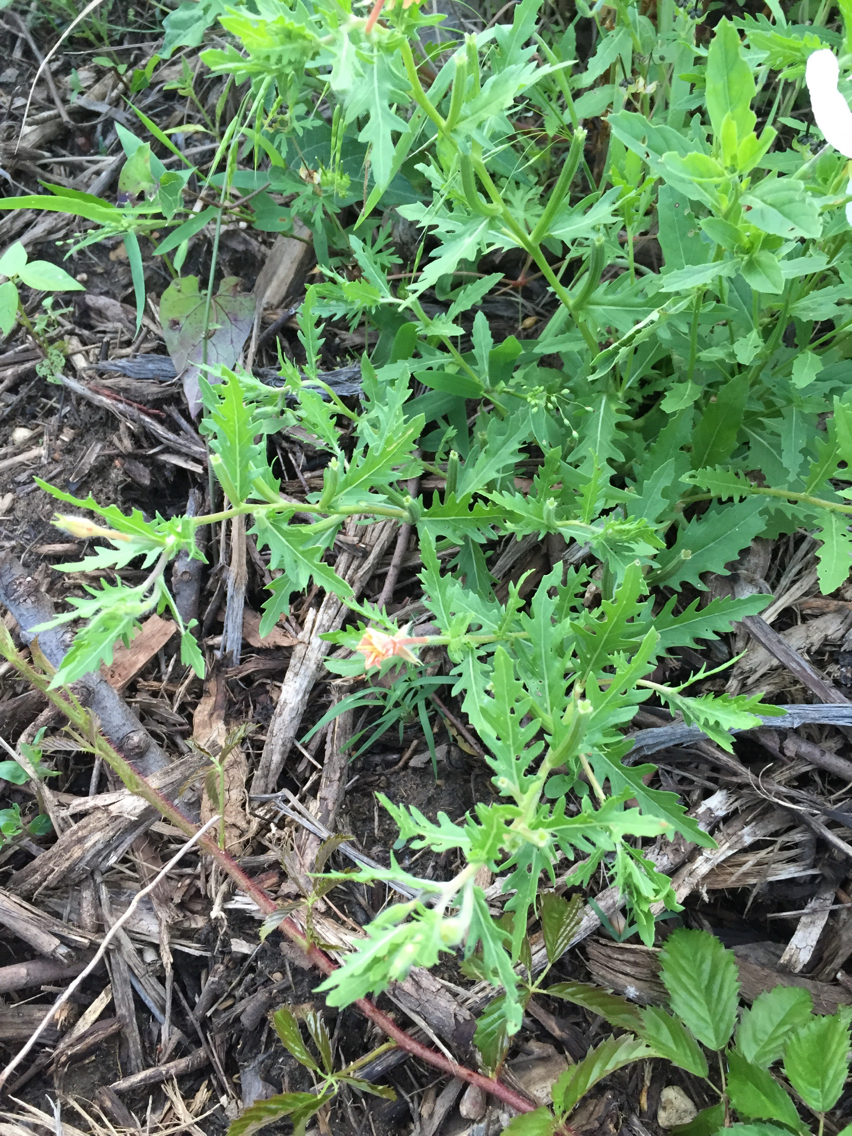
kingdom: Plantae
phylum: Tracheophyta
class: Magnoliopsida
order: Myrtales
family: Onagraceae
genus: Oenothera
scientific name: Oenothera laciniata
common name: Cut-leaved evening-primrose
